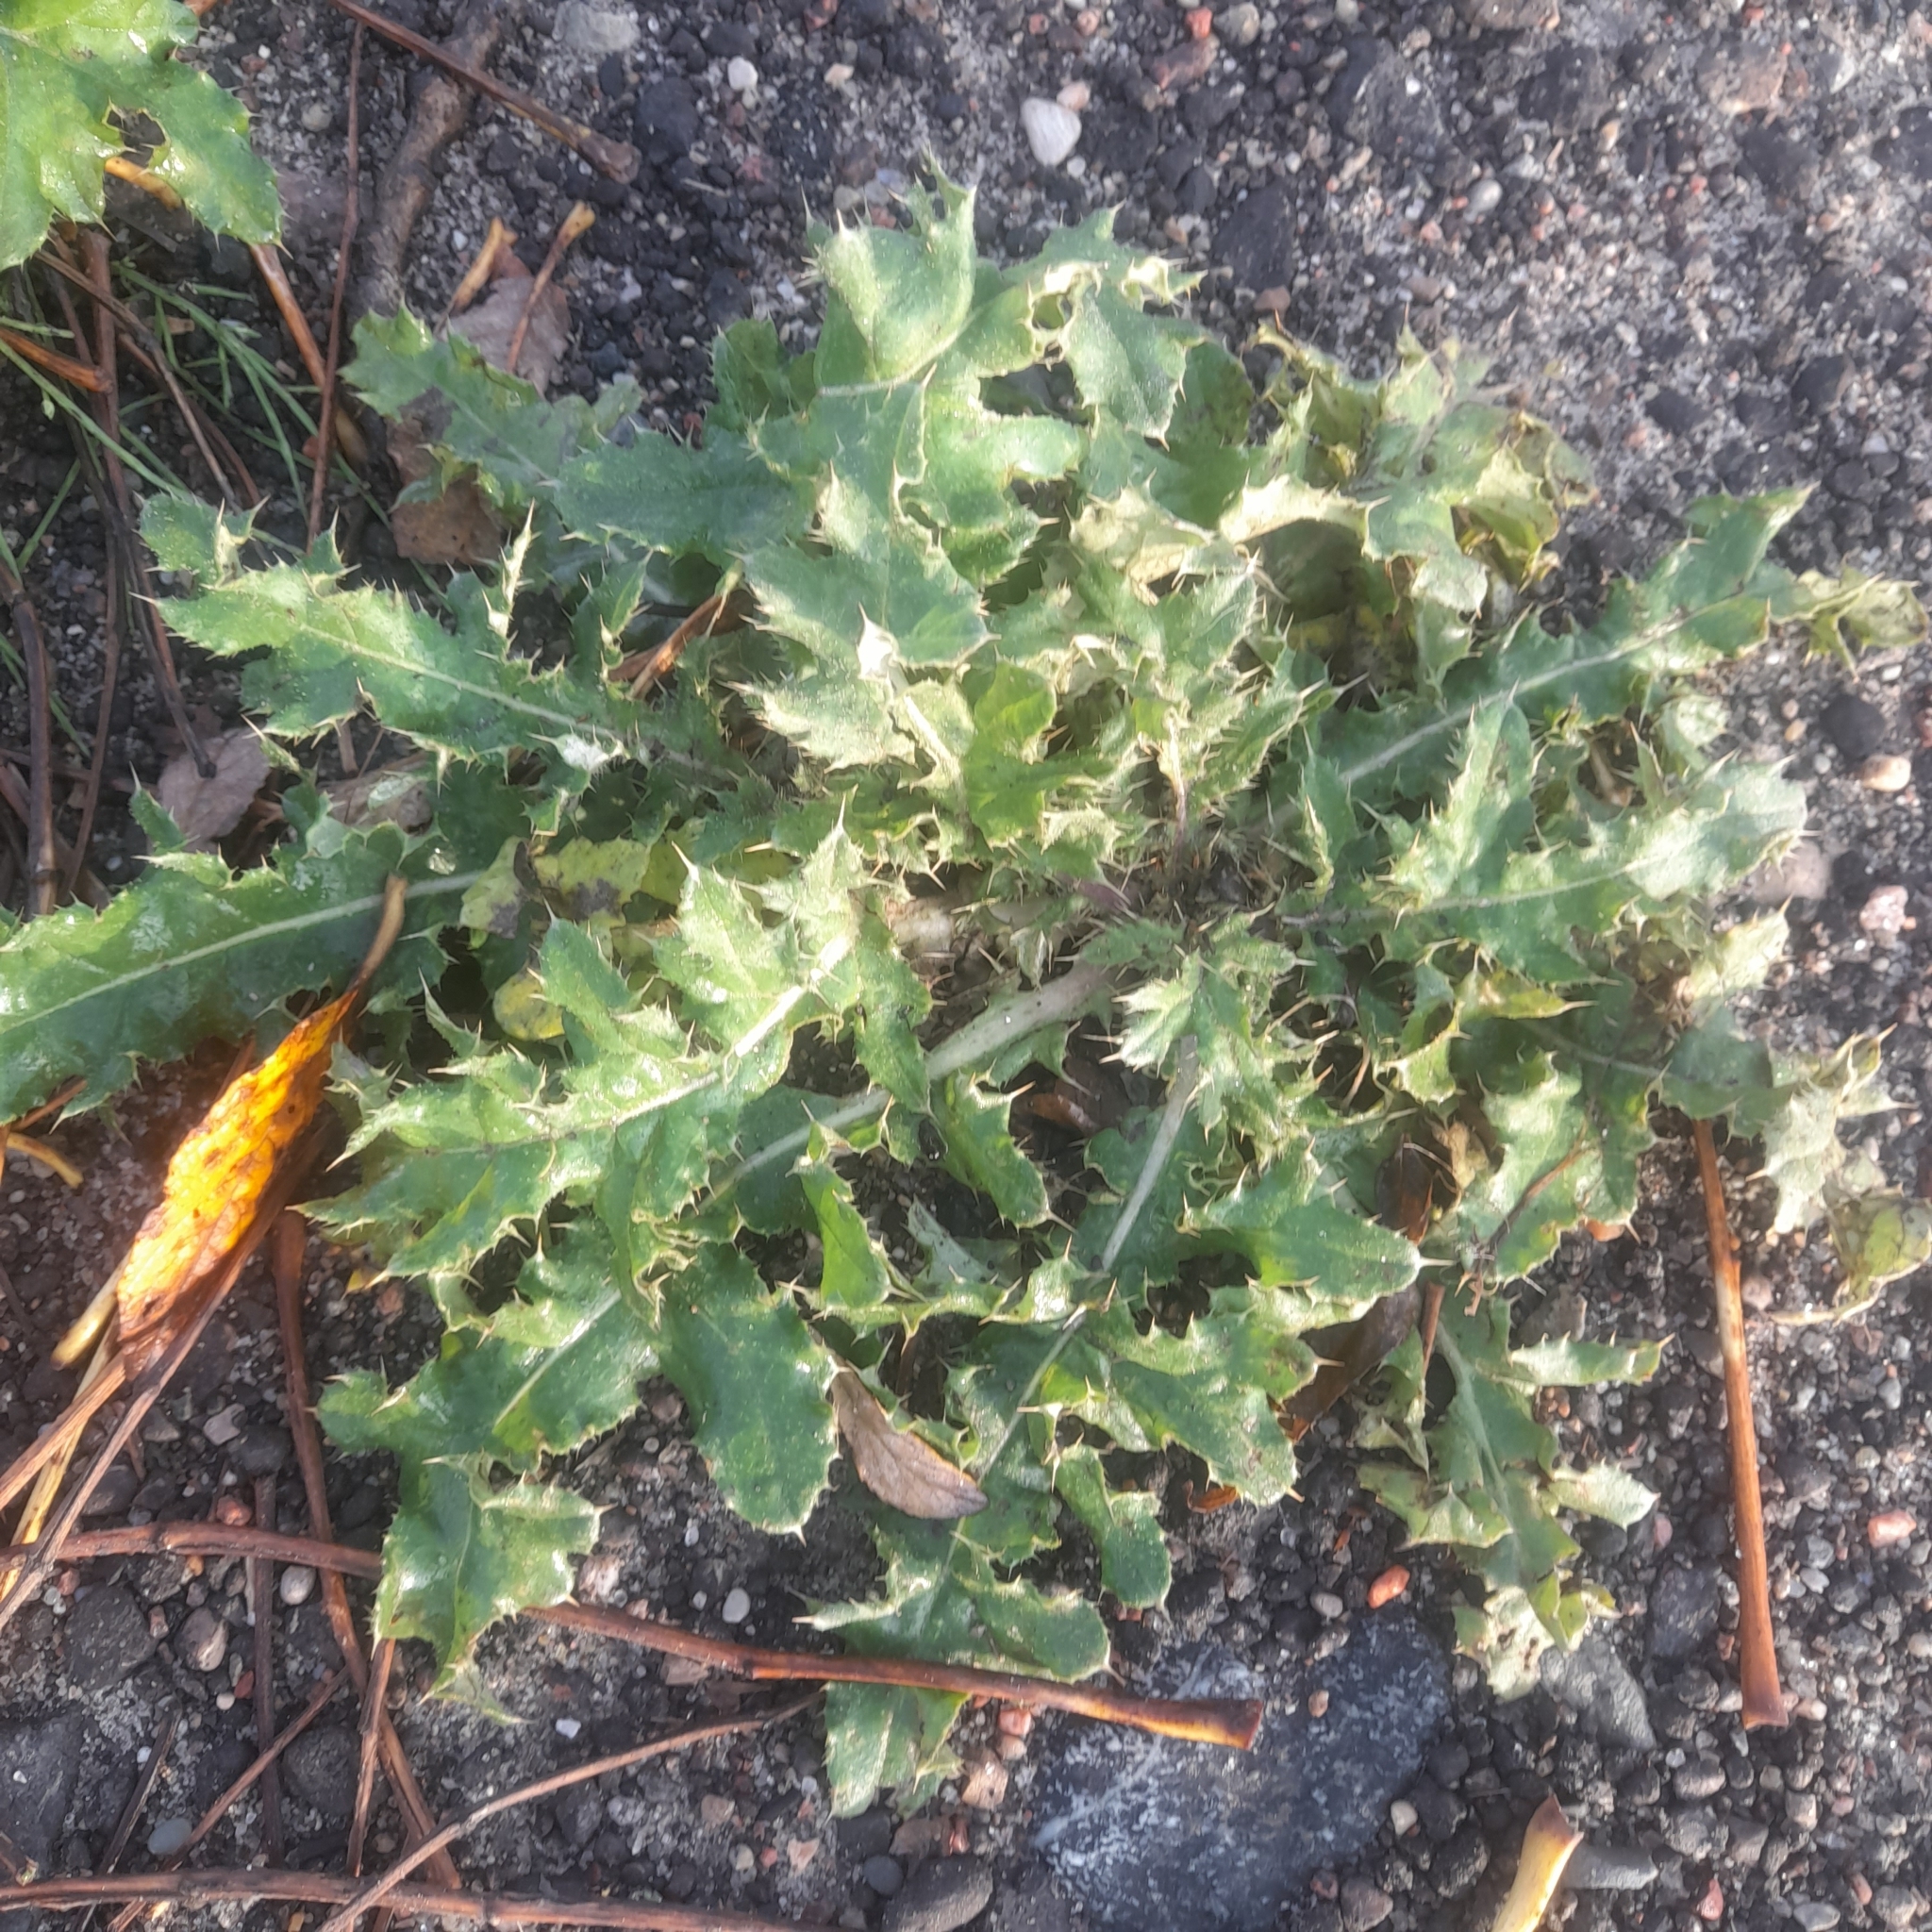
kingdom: Plantae
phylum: Tracheophyta
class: Magnoliopsida
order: Asterales
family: Asteraceae
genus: Cirsium
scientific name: Cirsium arvense
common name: Creeping thistle
